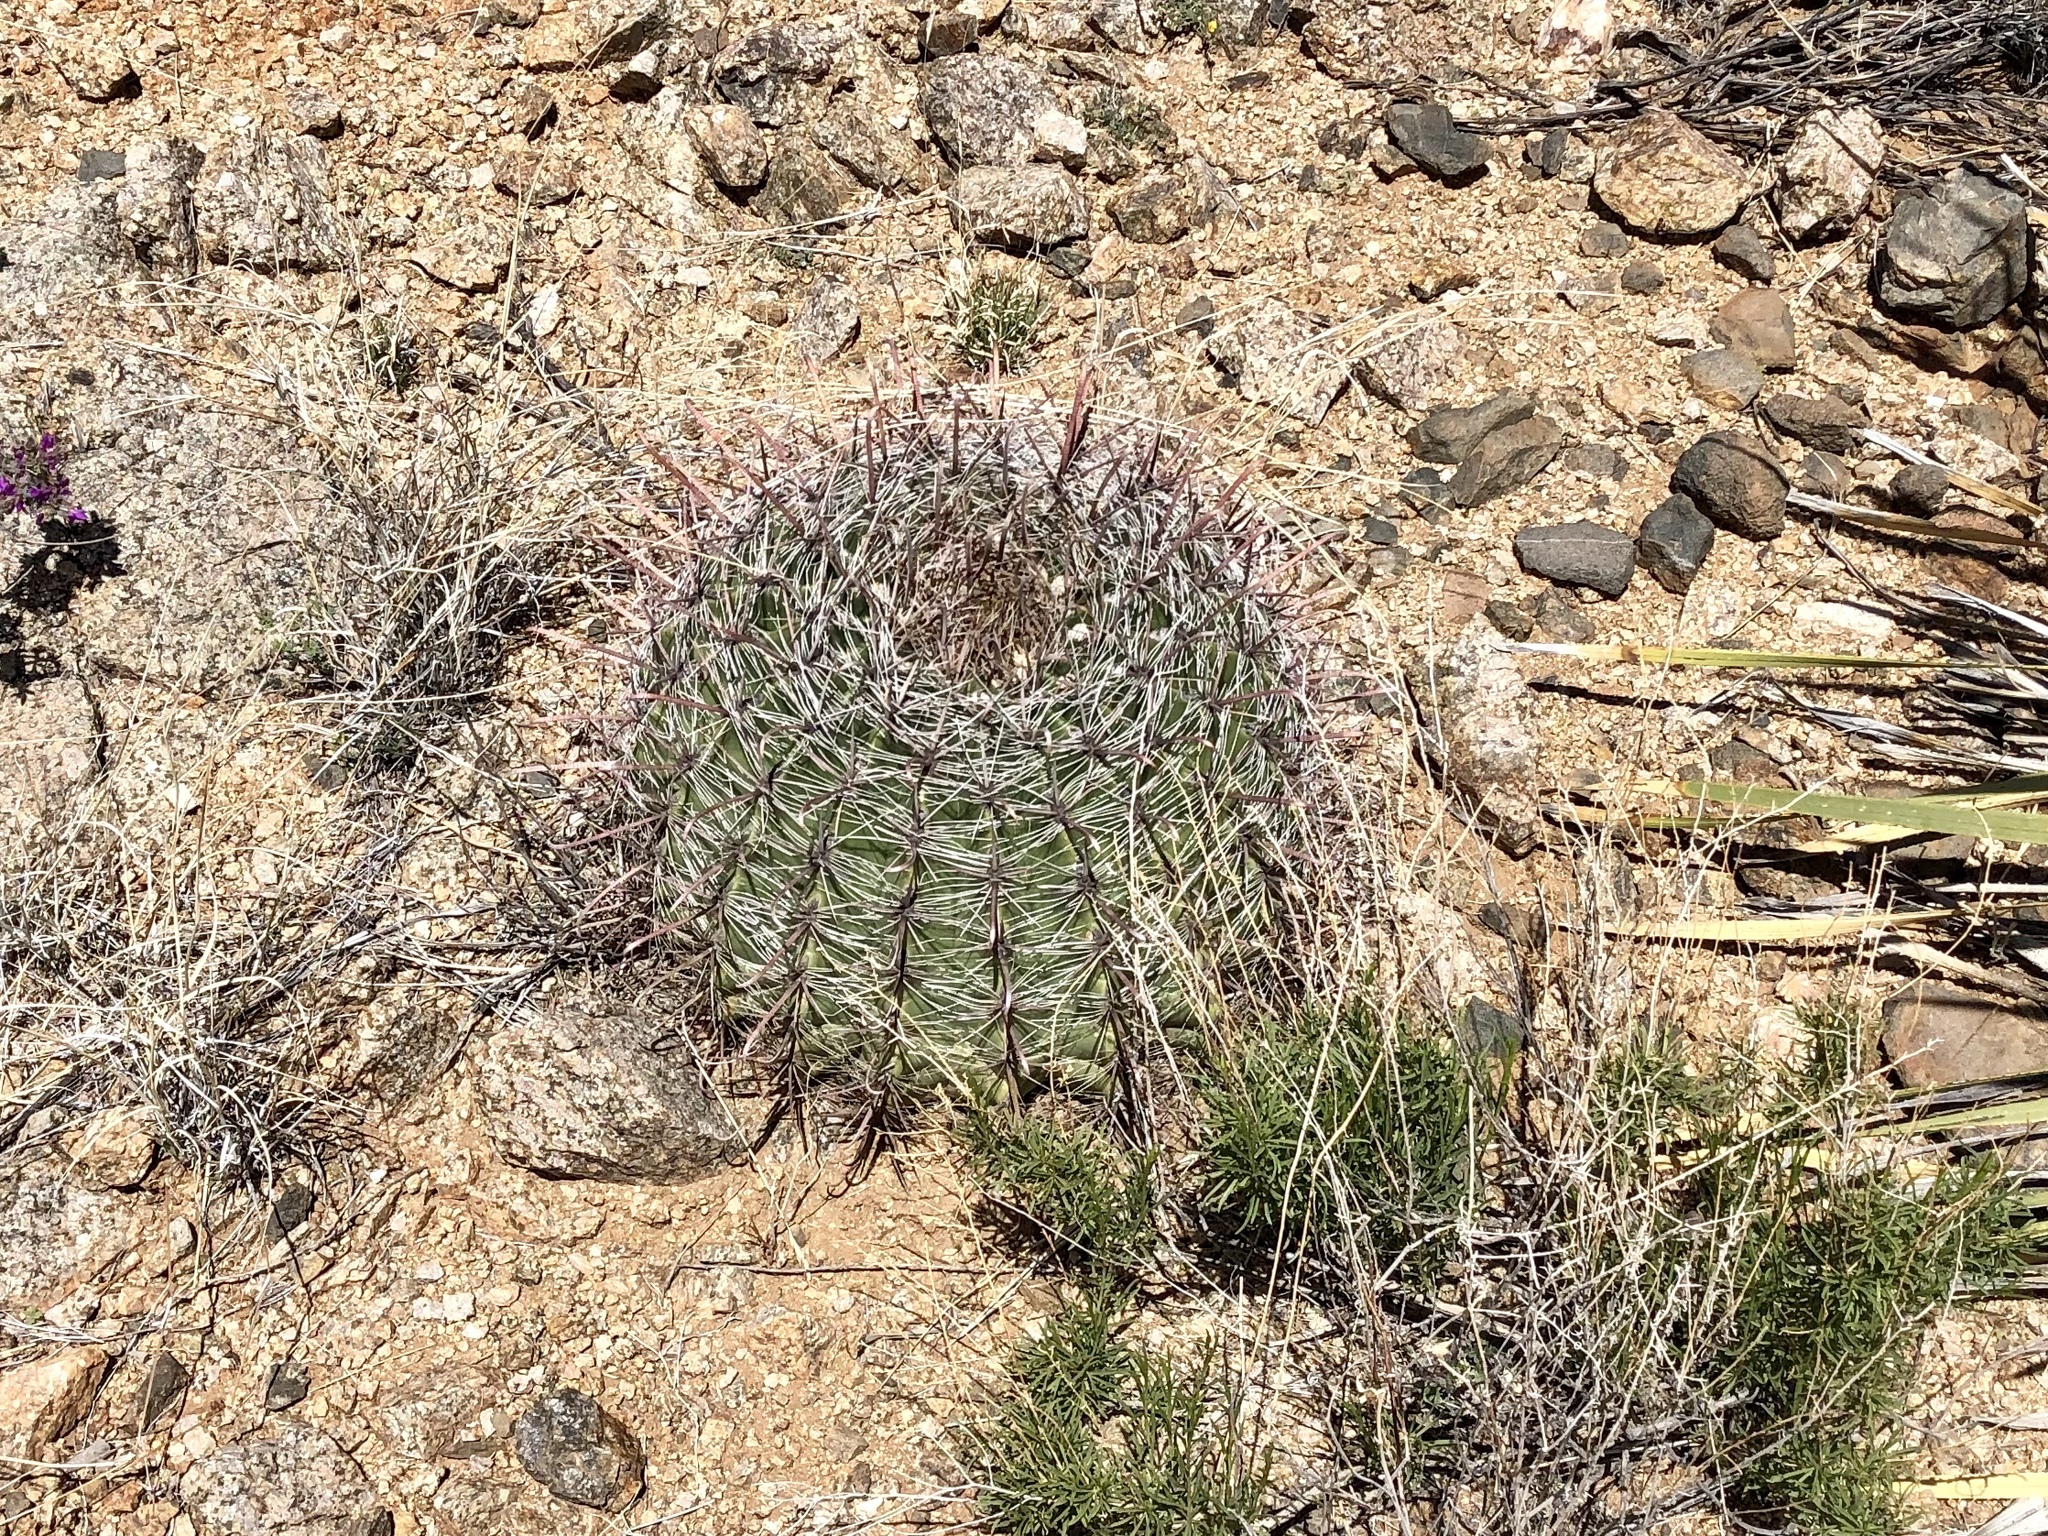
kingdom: Plantae
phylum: Tracheophyta
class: Magnoliopsida
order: Caryophyllales
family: Cactaceae
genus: Ferocactus
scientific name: Ferocactus wislizeni
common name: Candy barrel cactus
